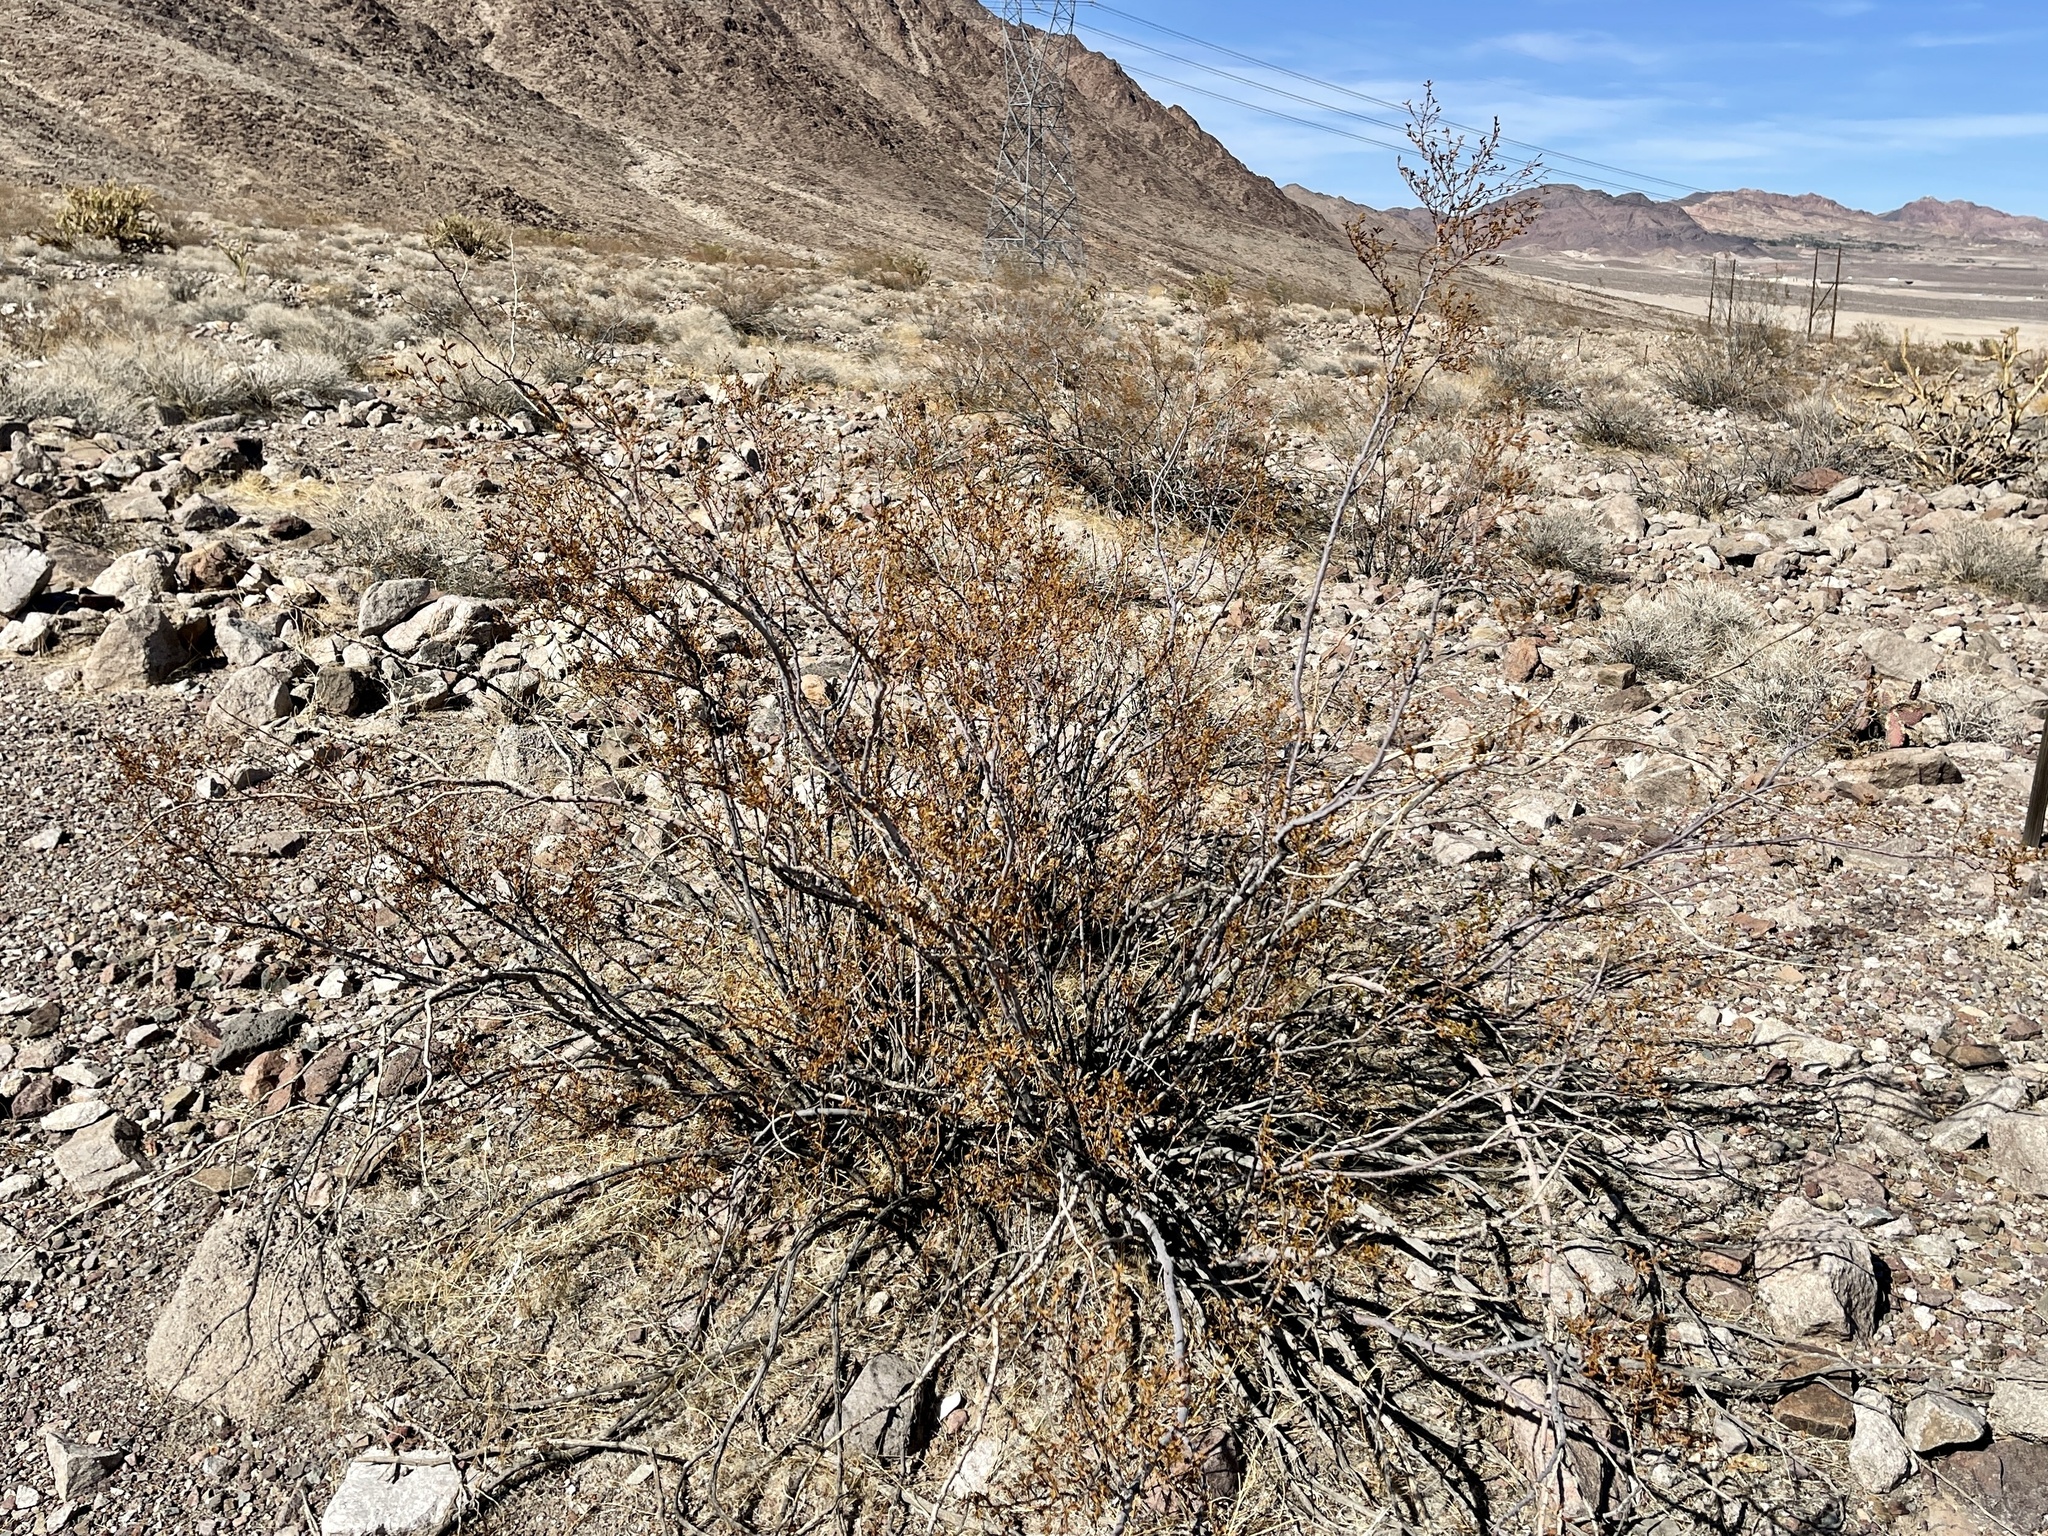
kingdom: Plantae
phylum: Tracheophyta
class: Magnoliopsida
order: Zygophyllales
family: Zygophyllaceae
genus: Larrea
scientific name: Larrea tridentata
